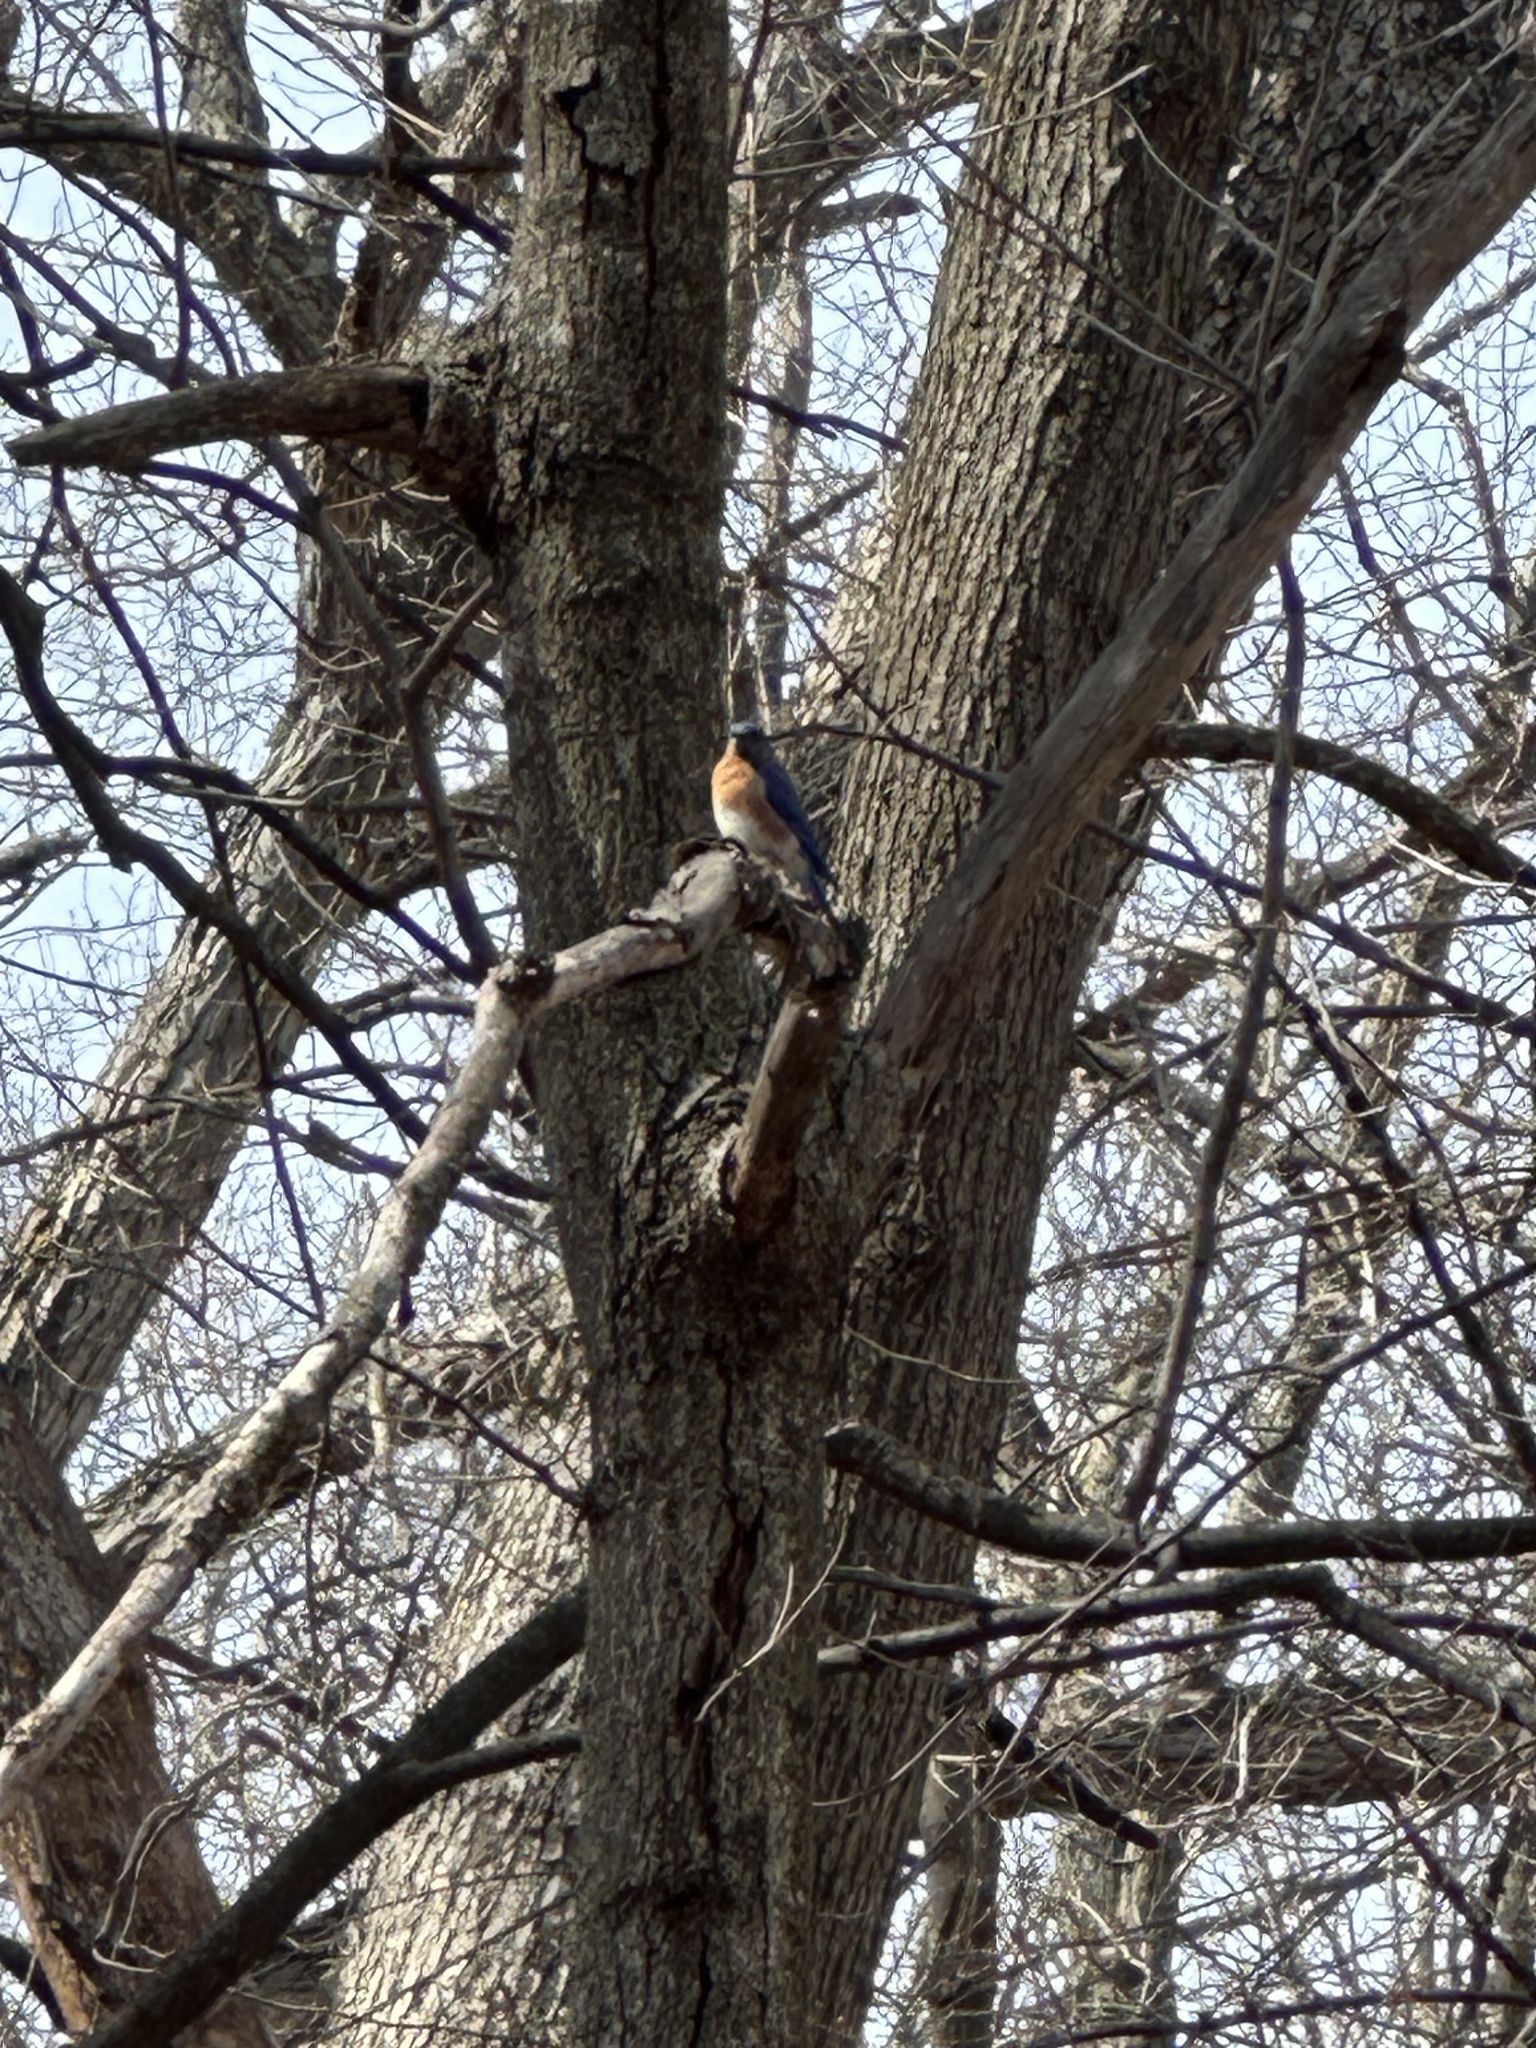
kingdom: Animalia
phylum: Chordata
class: Aves
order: Passeriformes
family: Turdidae
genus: Sialia
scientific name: Sialia sialis
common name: Eastern bluebird
